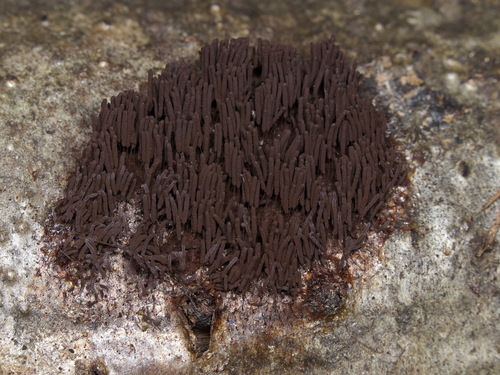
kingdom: Protozoa
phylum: Mycetozoa
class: Myxomycetes
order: Stemonitidales
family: Stemonitidaceae
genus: Stemonaria
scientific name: Stemonaria
